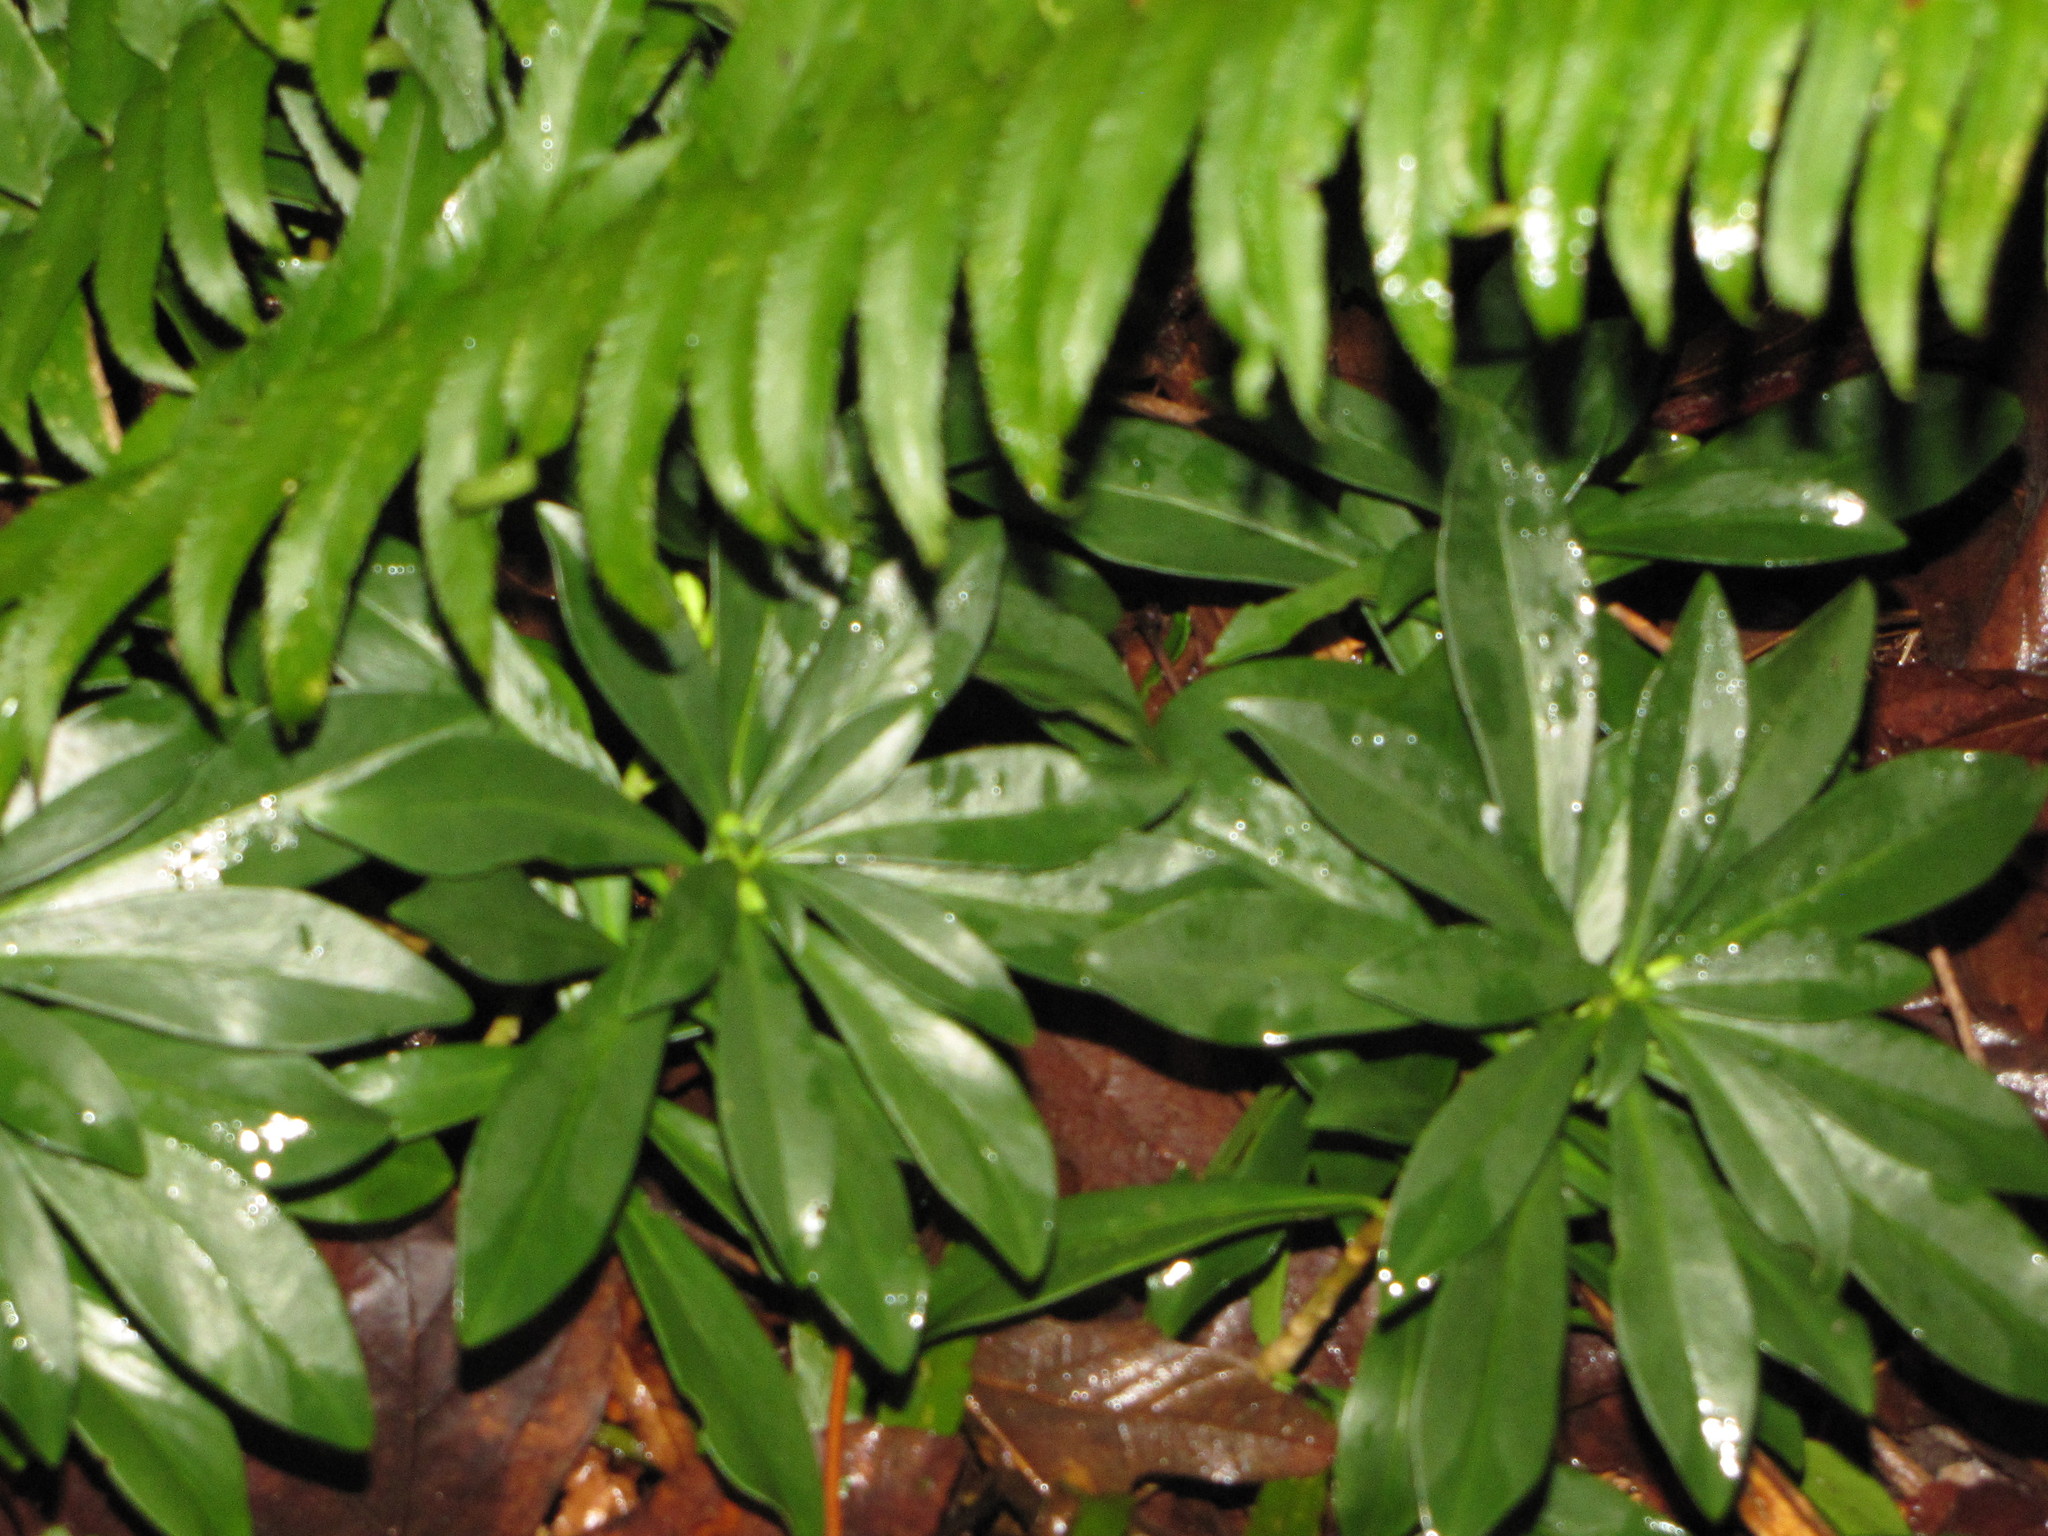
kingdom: Plantae
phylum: Tracheophyta
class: Magnoliopsida
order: Malvales
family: Thymelaeaceae
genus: Daphne
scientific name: Daphne laureola
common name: Spurge-laurel
